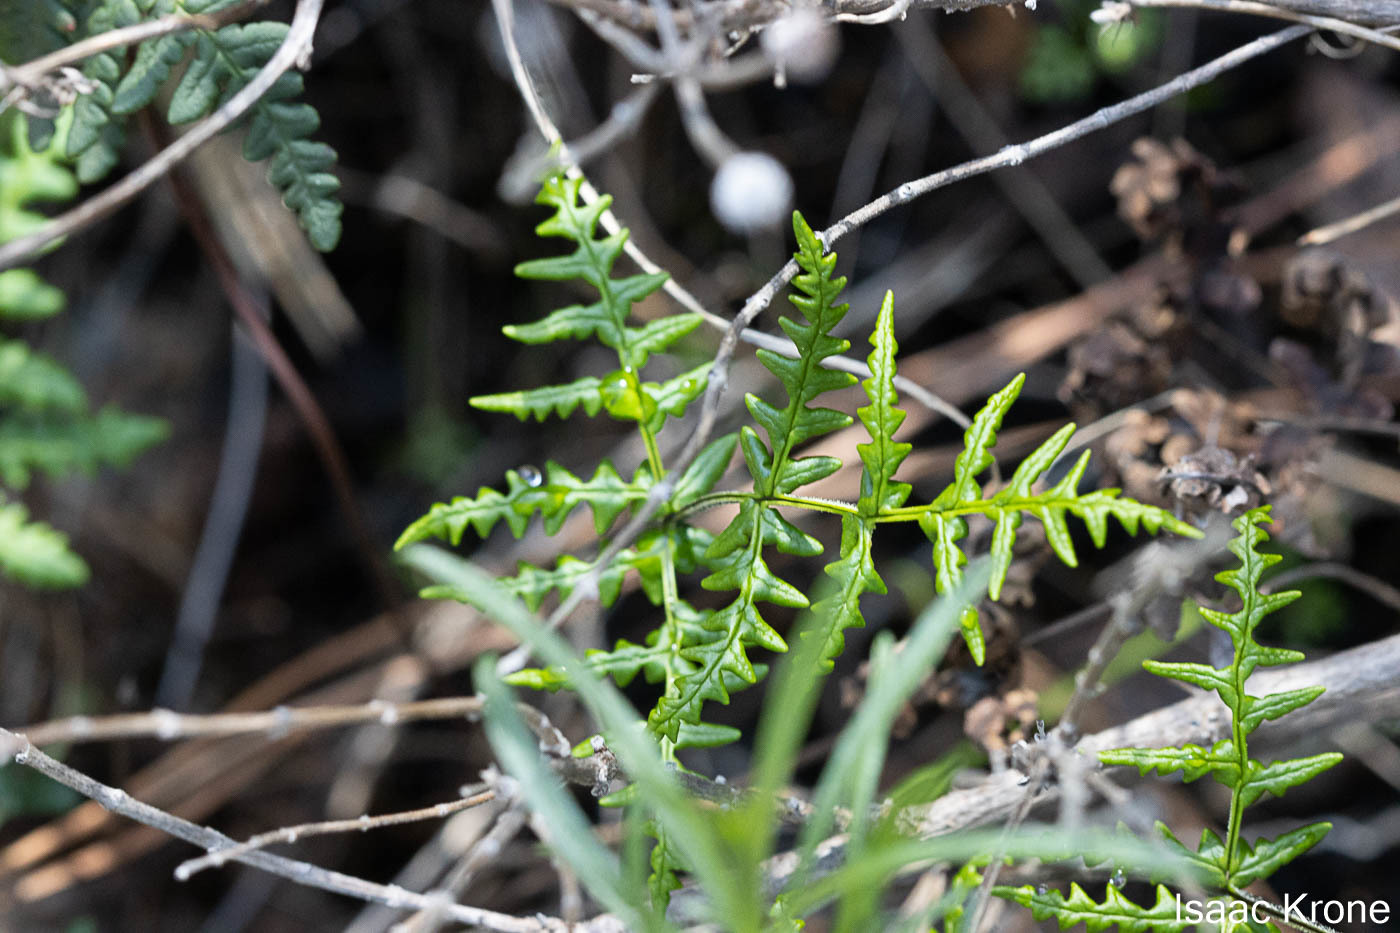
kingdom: Plantae
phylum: Tracheophyta
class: Polypodiopsida
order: Polypodiales
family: Pteridaceae
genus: Pentagramma
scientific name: Pentagramma triangularis
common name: Gold fern
